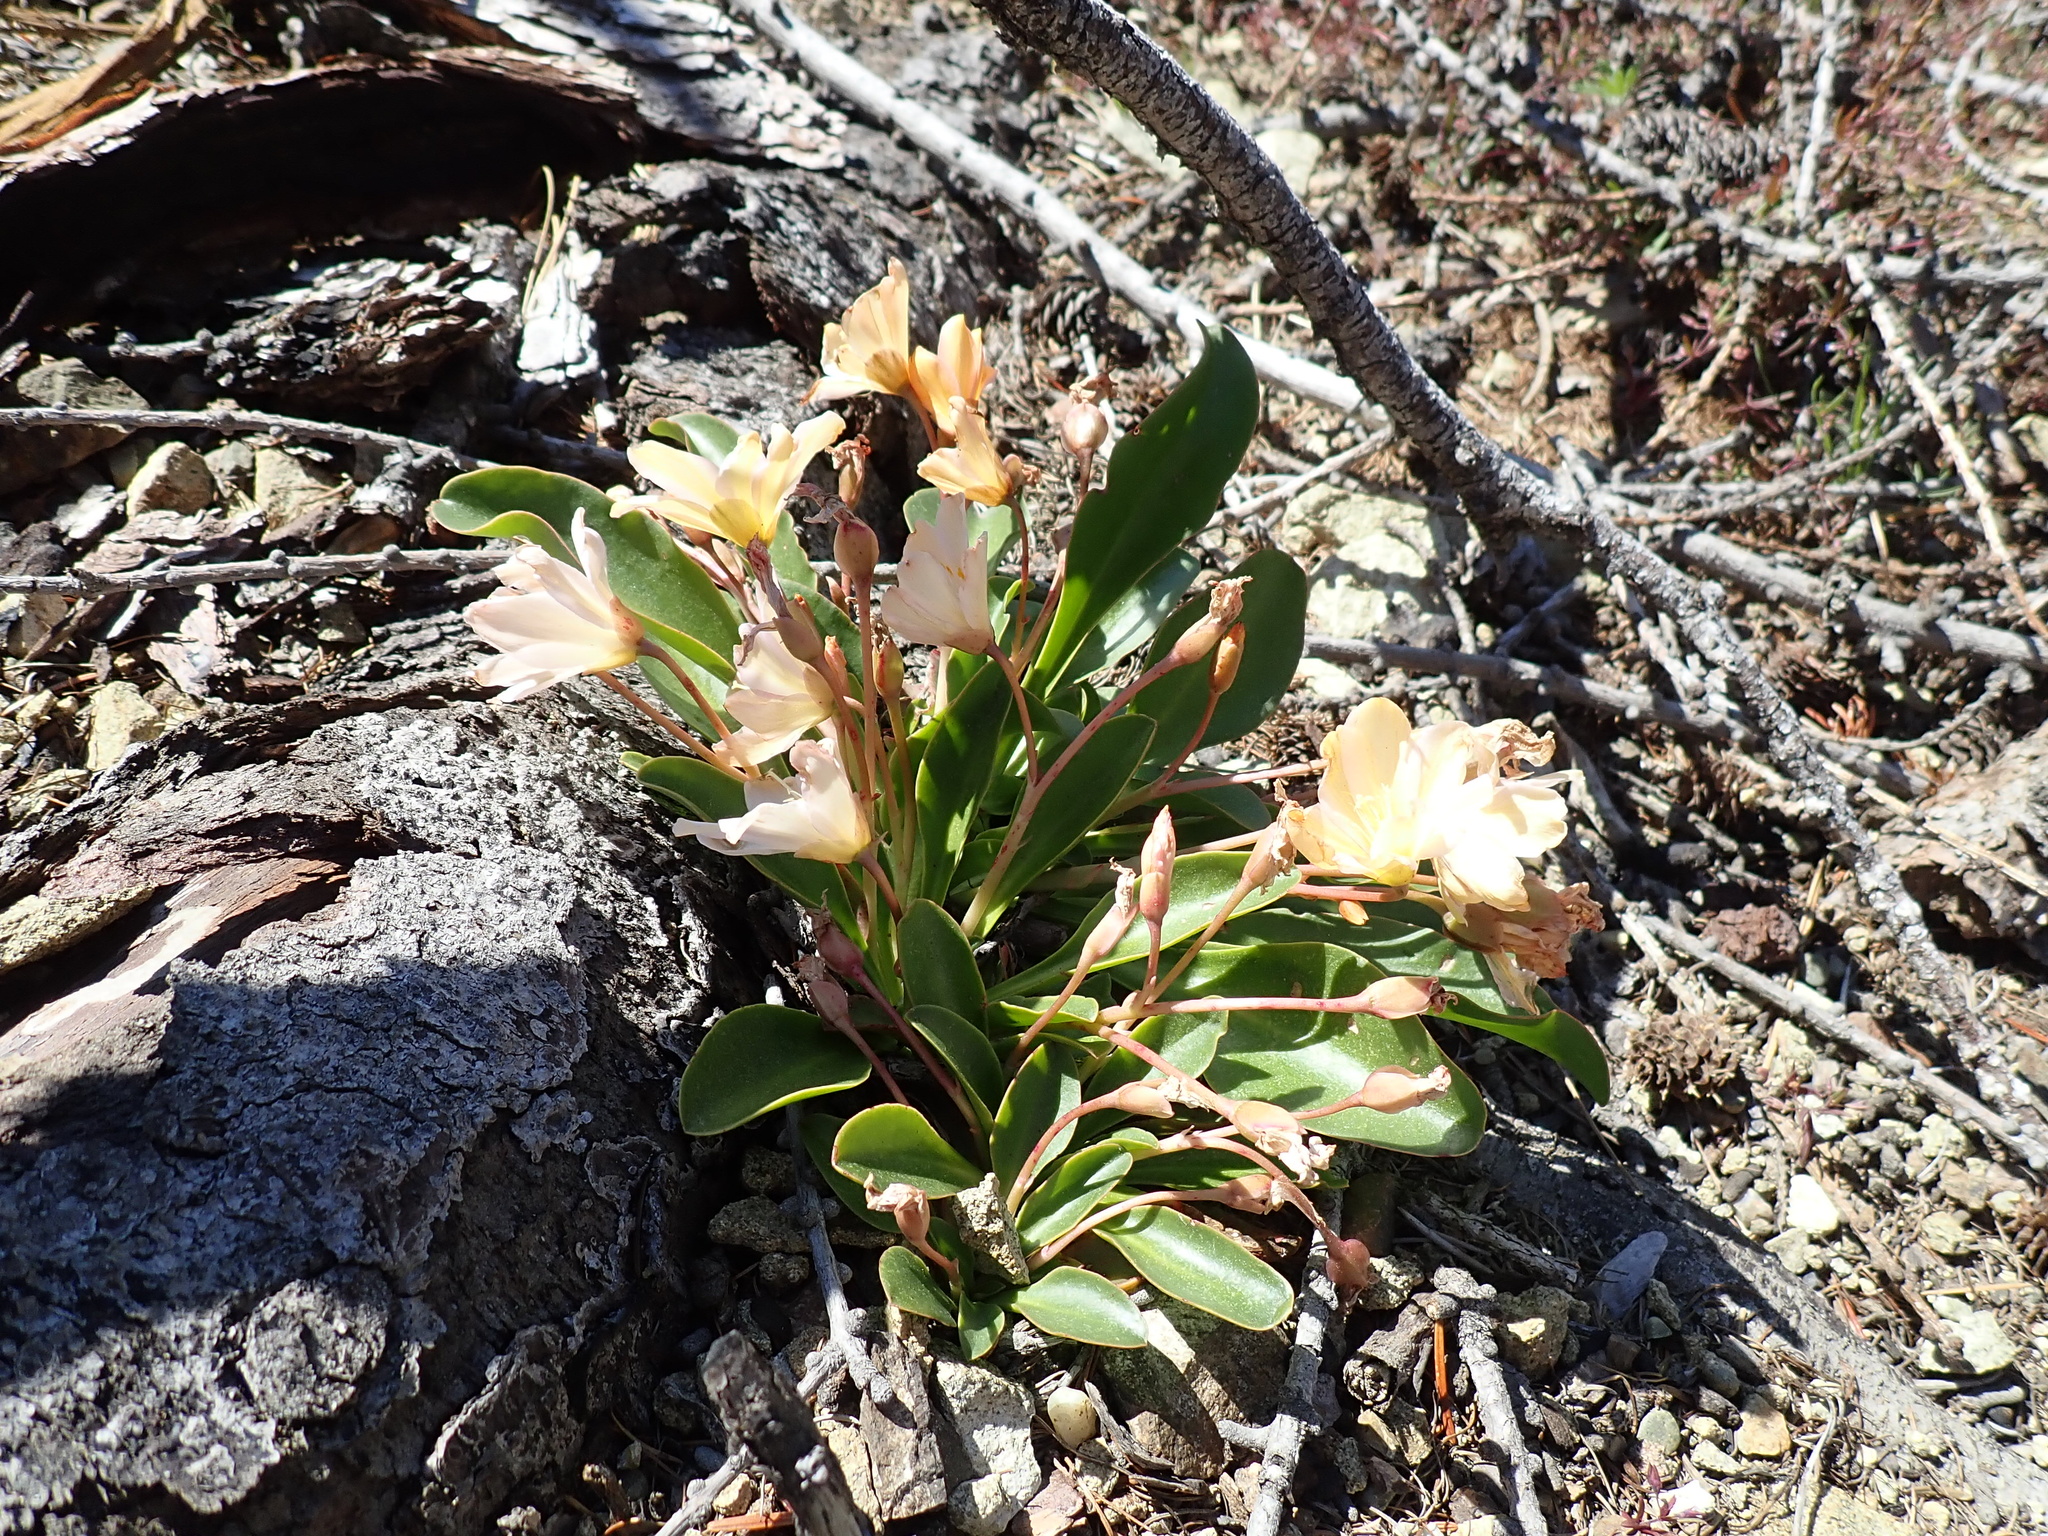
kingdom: Plantae
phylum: Tracheophyta
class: Magnoliopsida
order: Caryophyllales
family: Montiaceae
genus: Lewisiopsis
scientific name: Lewisiopsis tweedyi
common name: Tweedy's pussypaws
